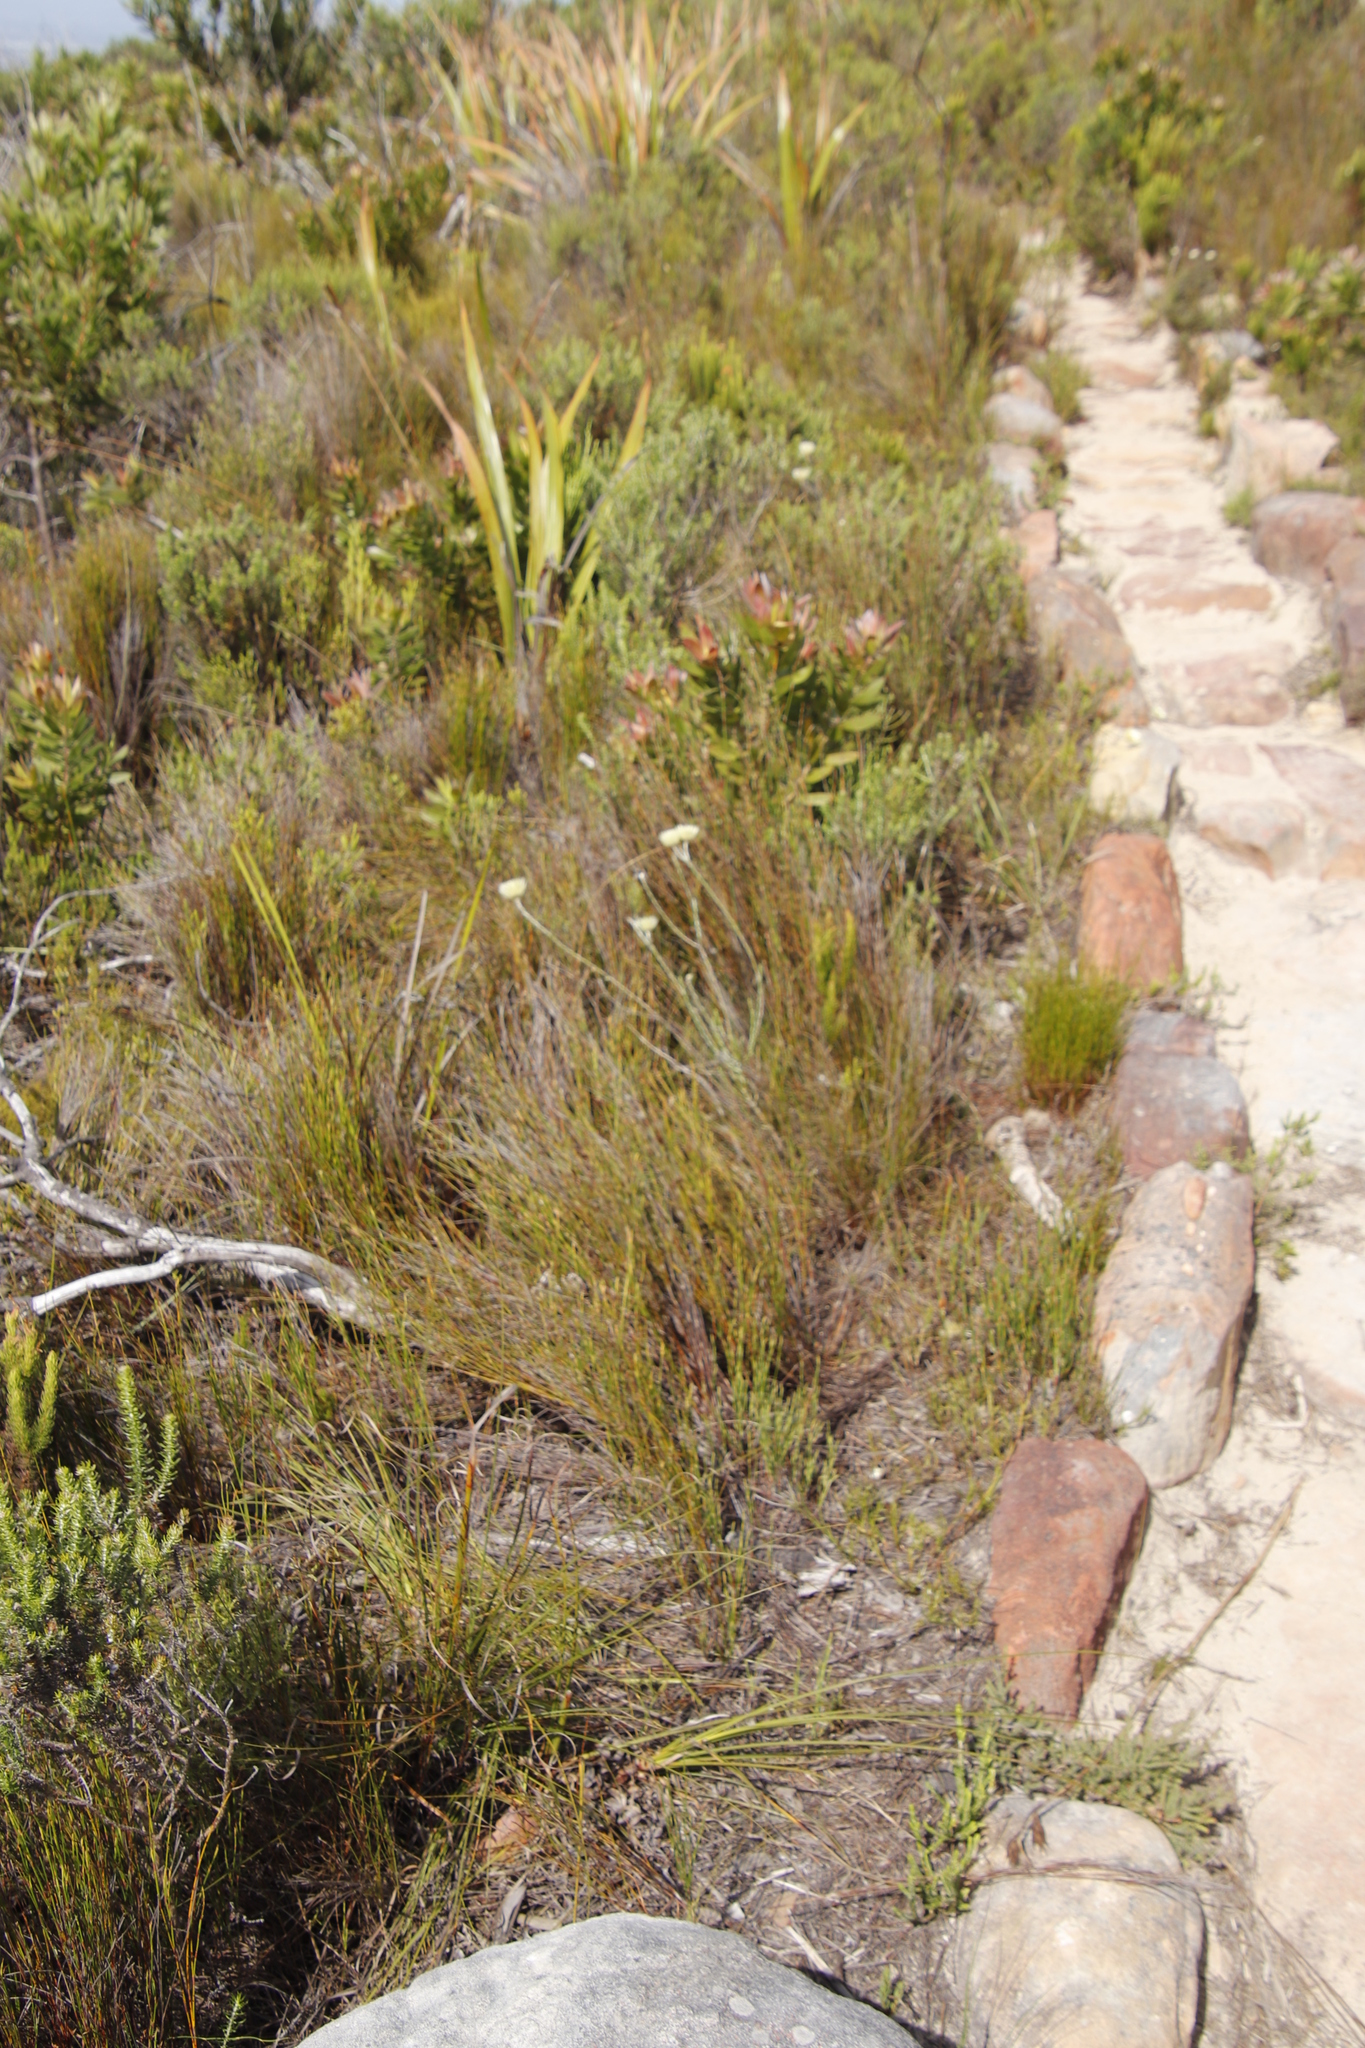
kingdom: Plantae
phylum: Tracheophyta
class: Magnoliopsida
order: Asterales
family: Asteraceae
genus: Edmondia
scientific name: Edmondia sesamoides
